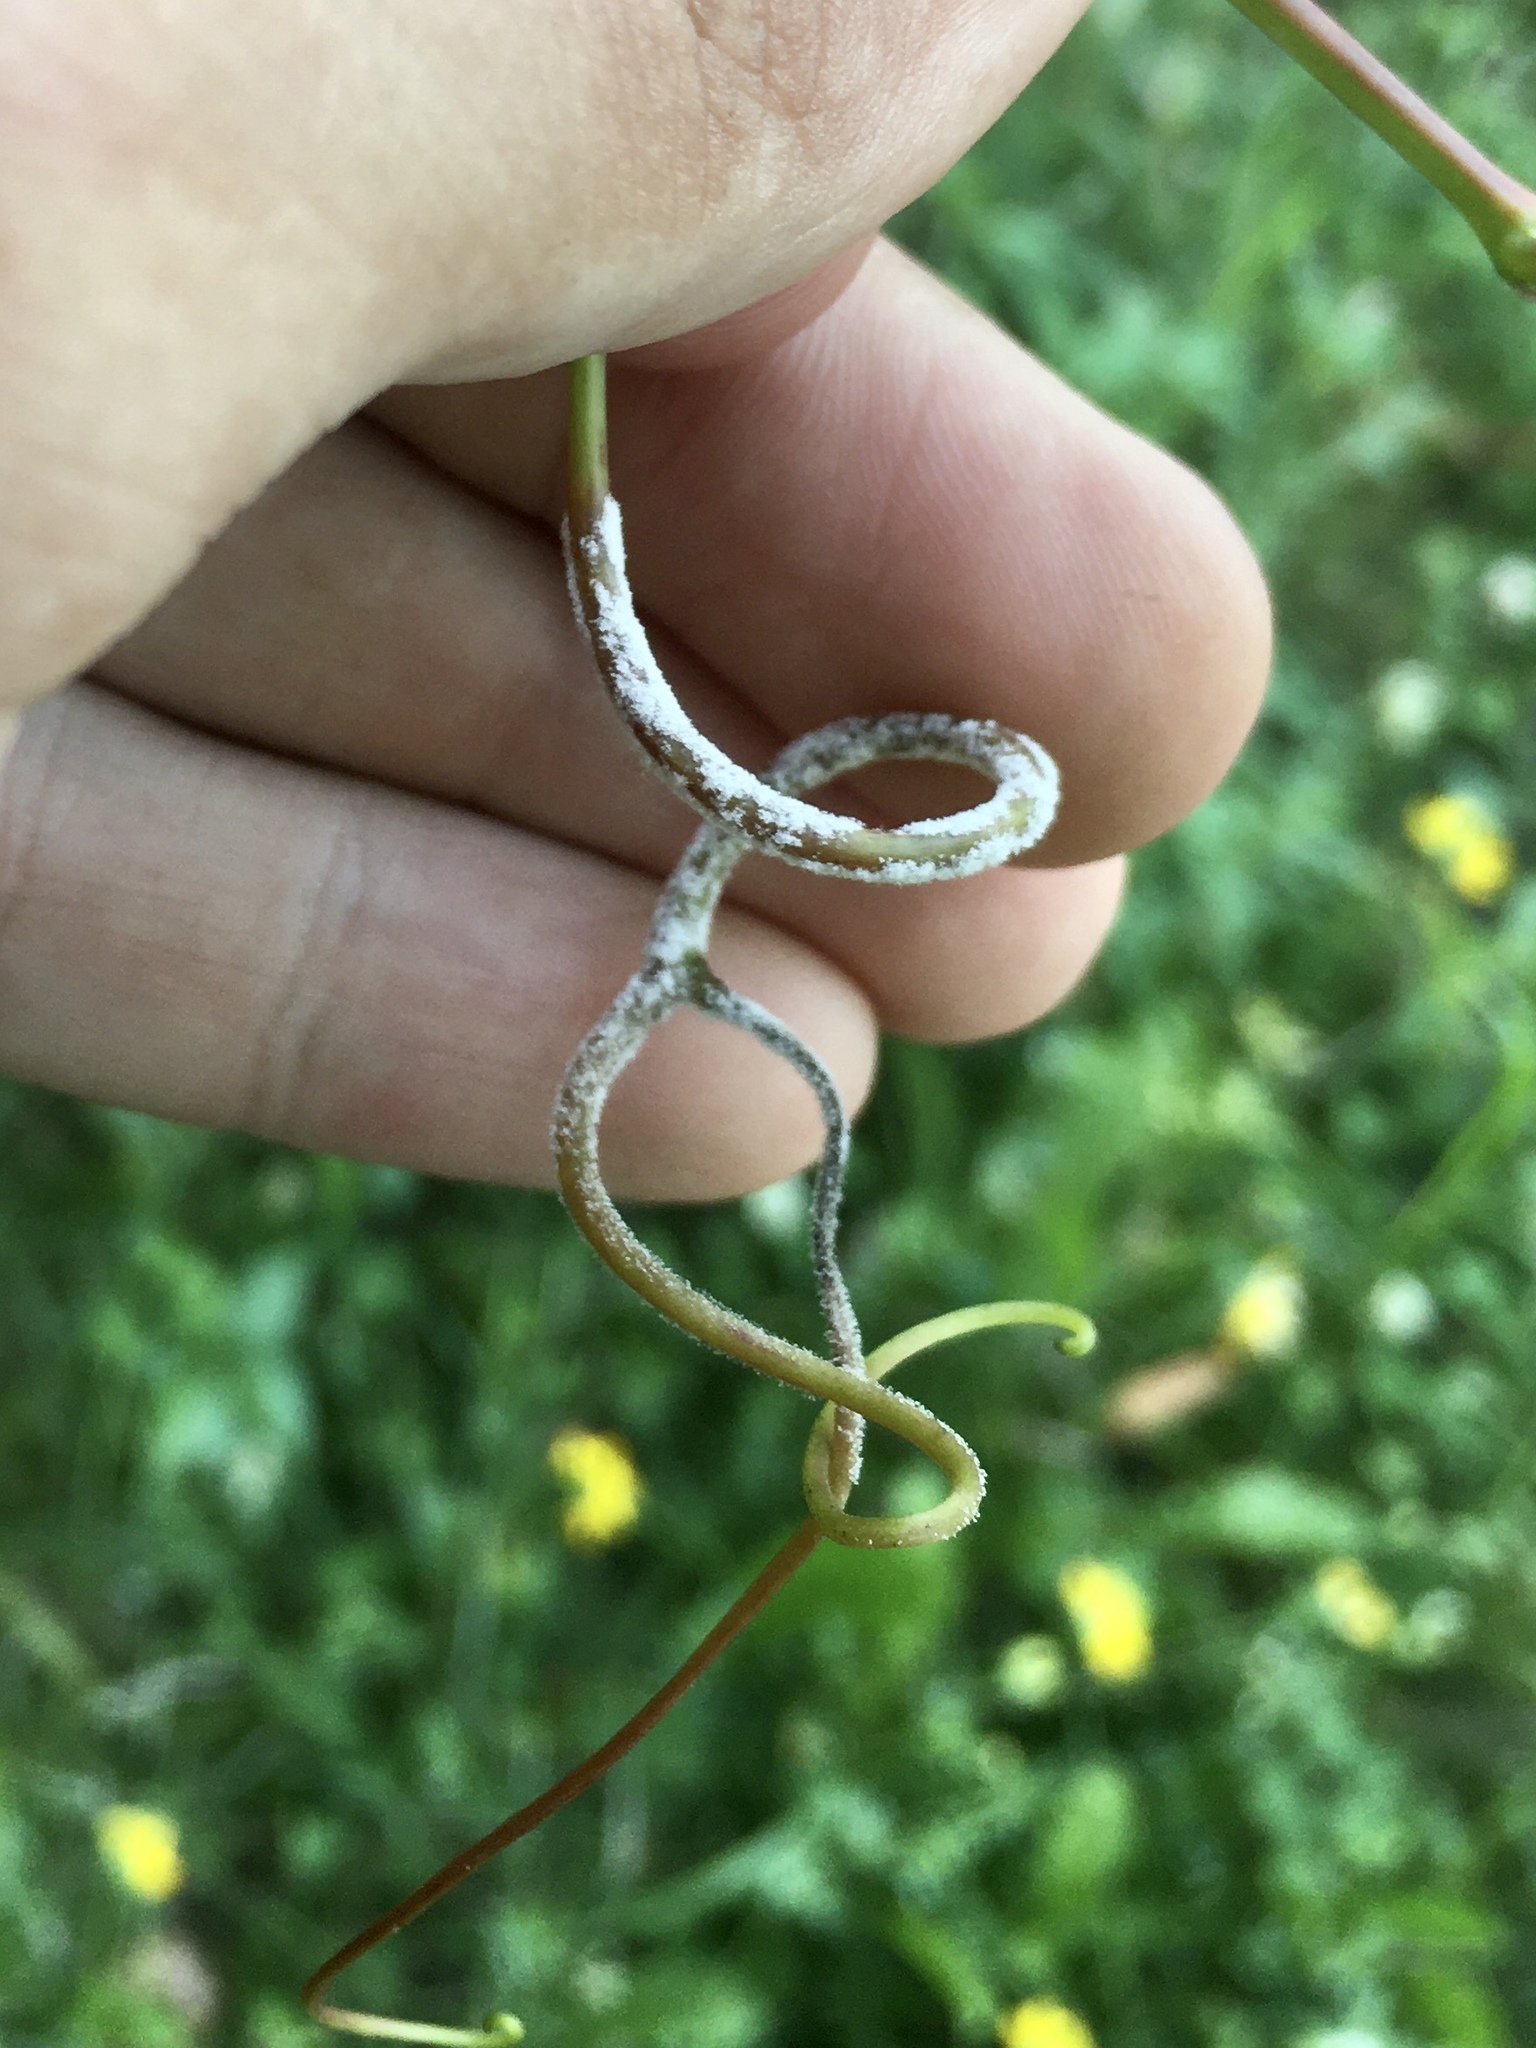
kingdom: Chromista
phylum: Oomycota
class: Peronosporea
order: Peronosporales
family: Peronosporaceae
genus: Plasmopara
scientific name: Plasmopara viticola
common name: Grapevine downy mildew
